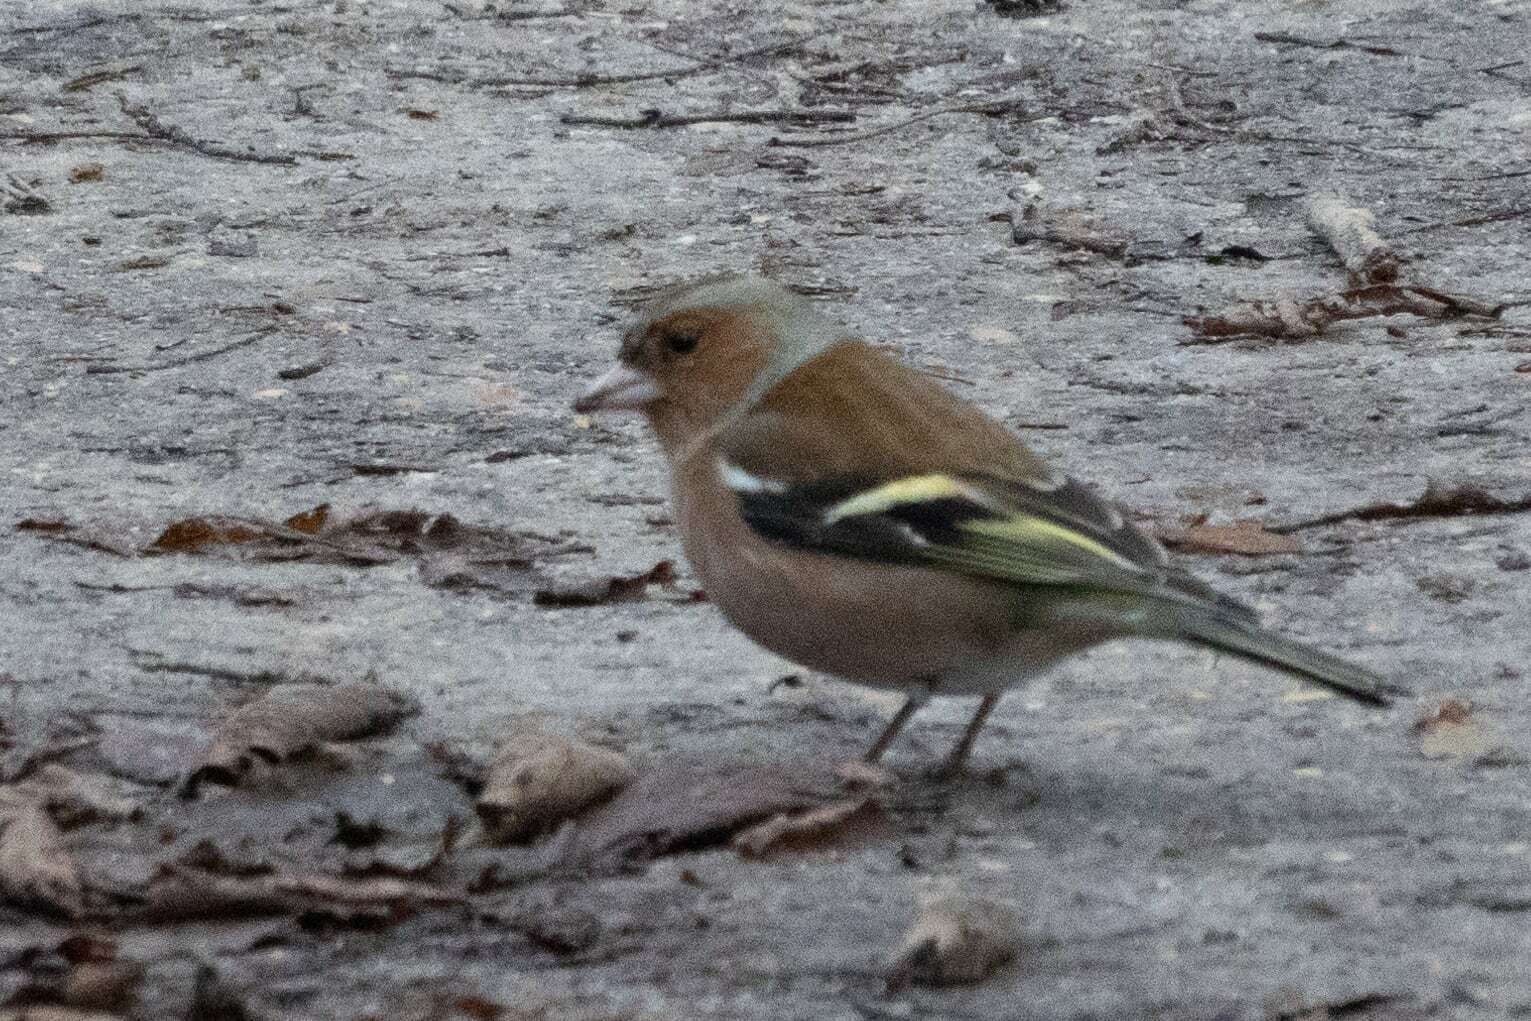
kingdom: Animalia
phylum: Chordata
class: Aves
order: Passeriformes
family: Fringillidae
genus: Fringilla
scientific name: Fringilla coelebs
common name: Common chaffinch
